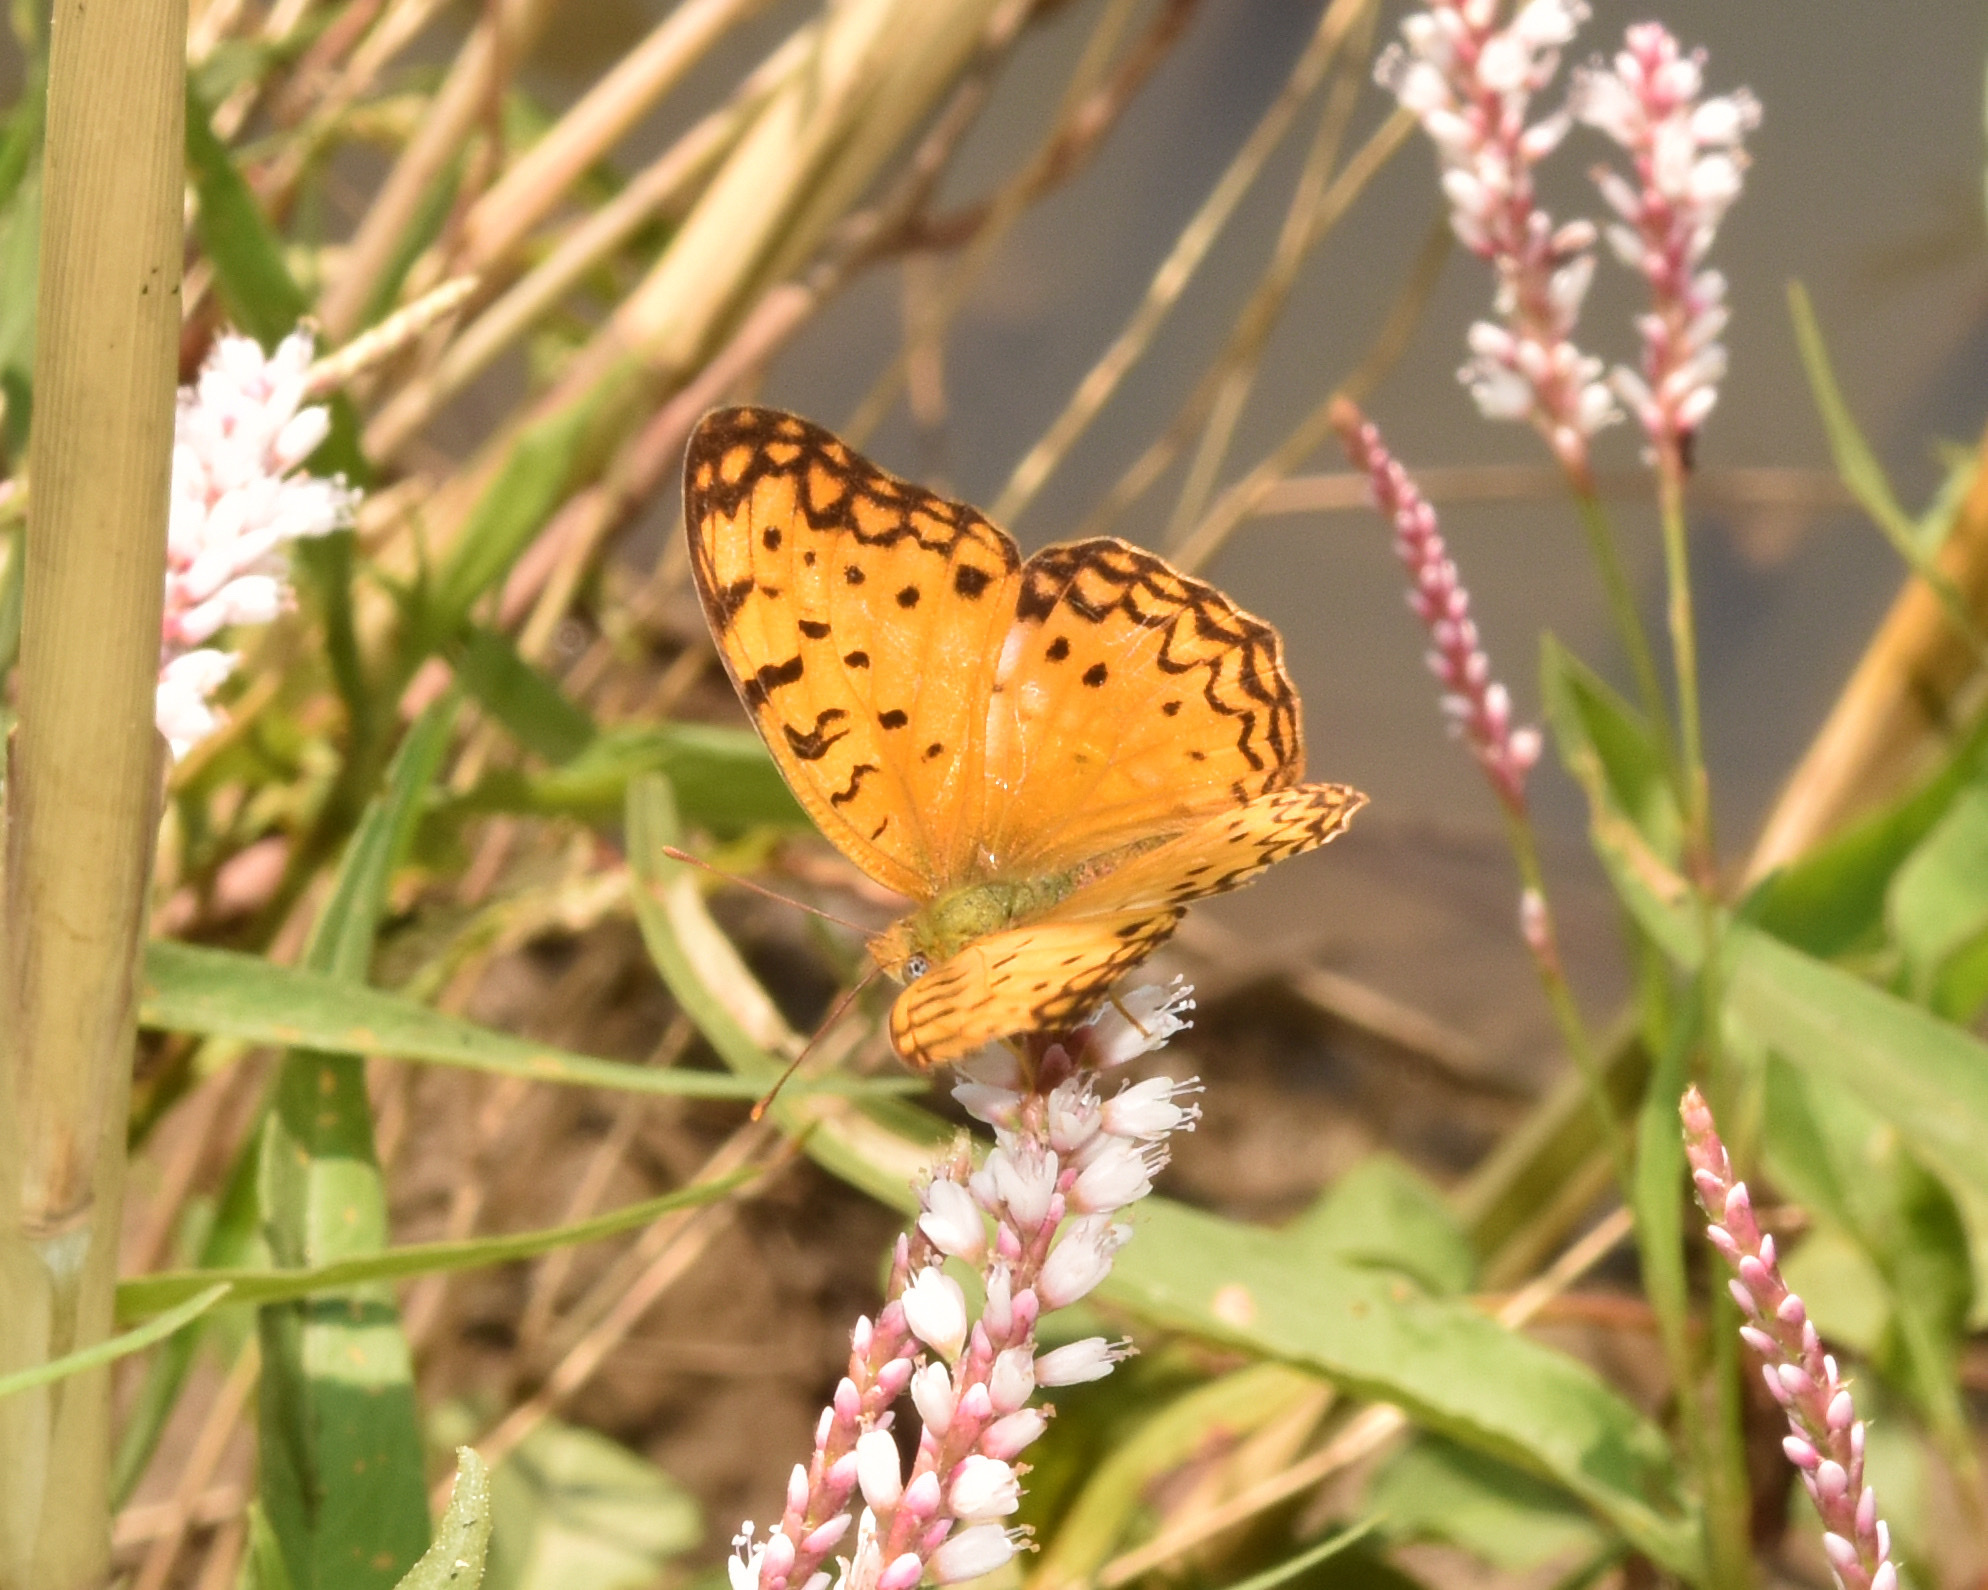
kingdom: Animalia
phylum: Arthropoda
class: Insecta
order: Lepidoptera
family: Nymphalidae
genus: Phalanta
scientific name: Phalanta phalantha
